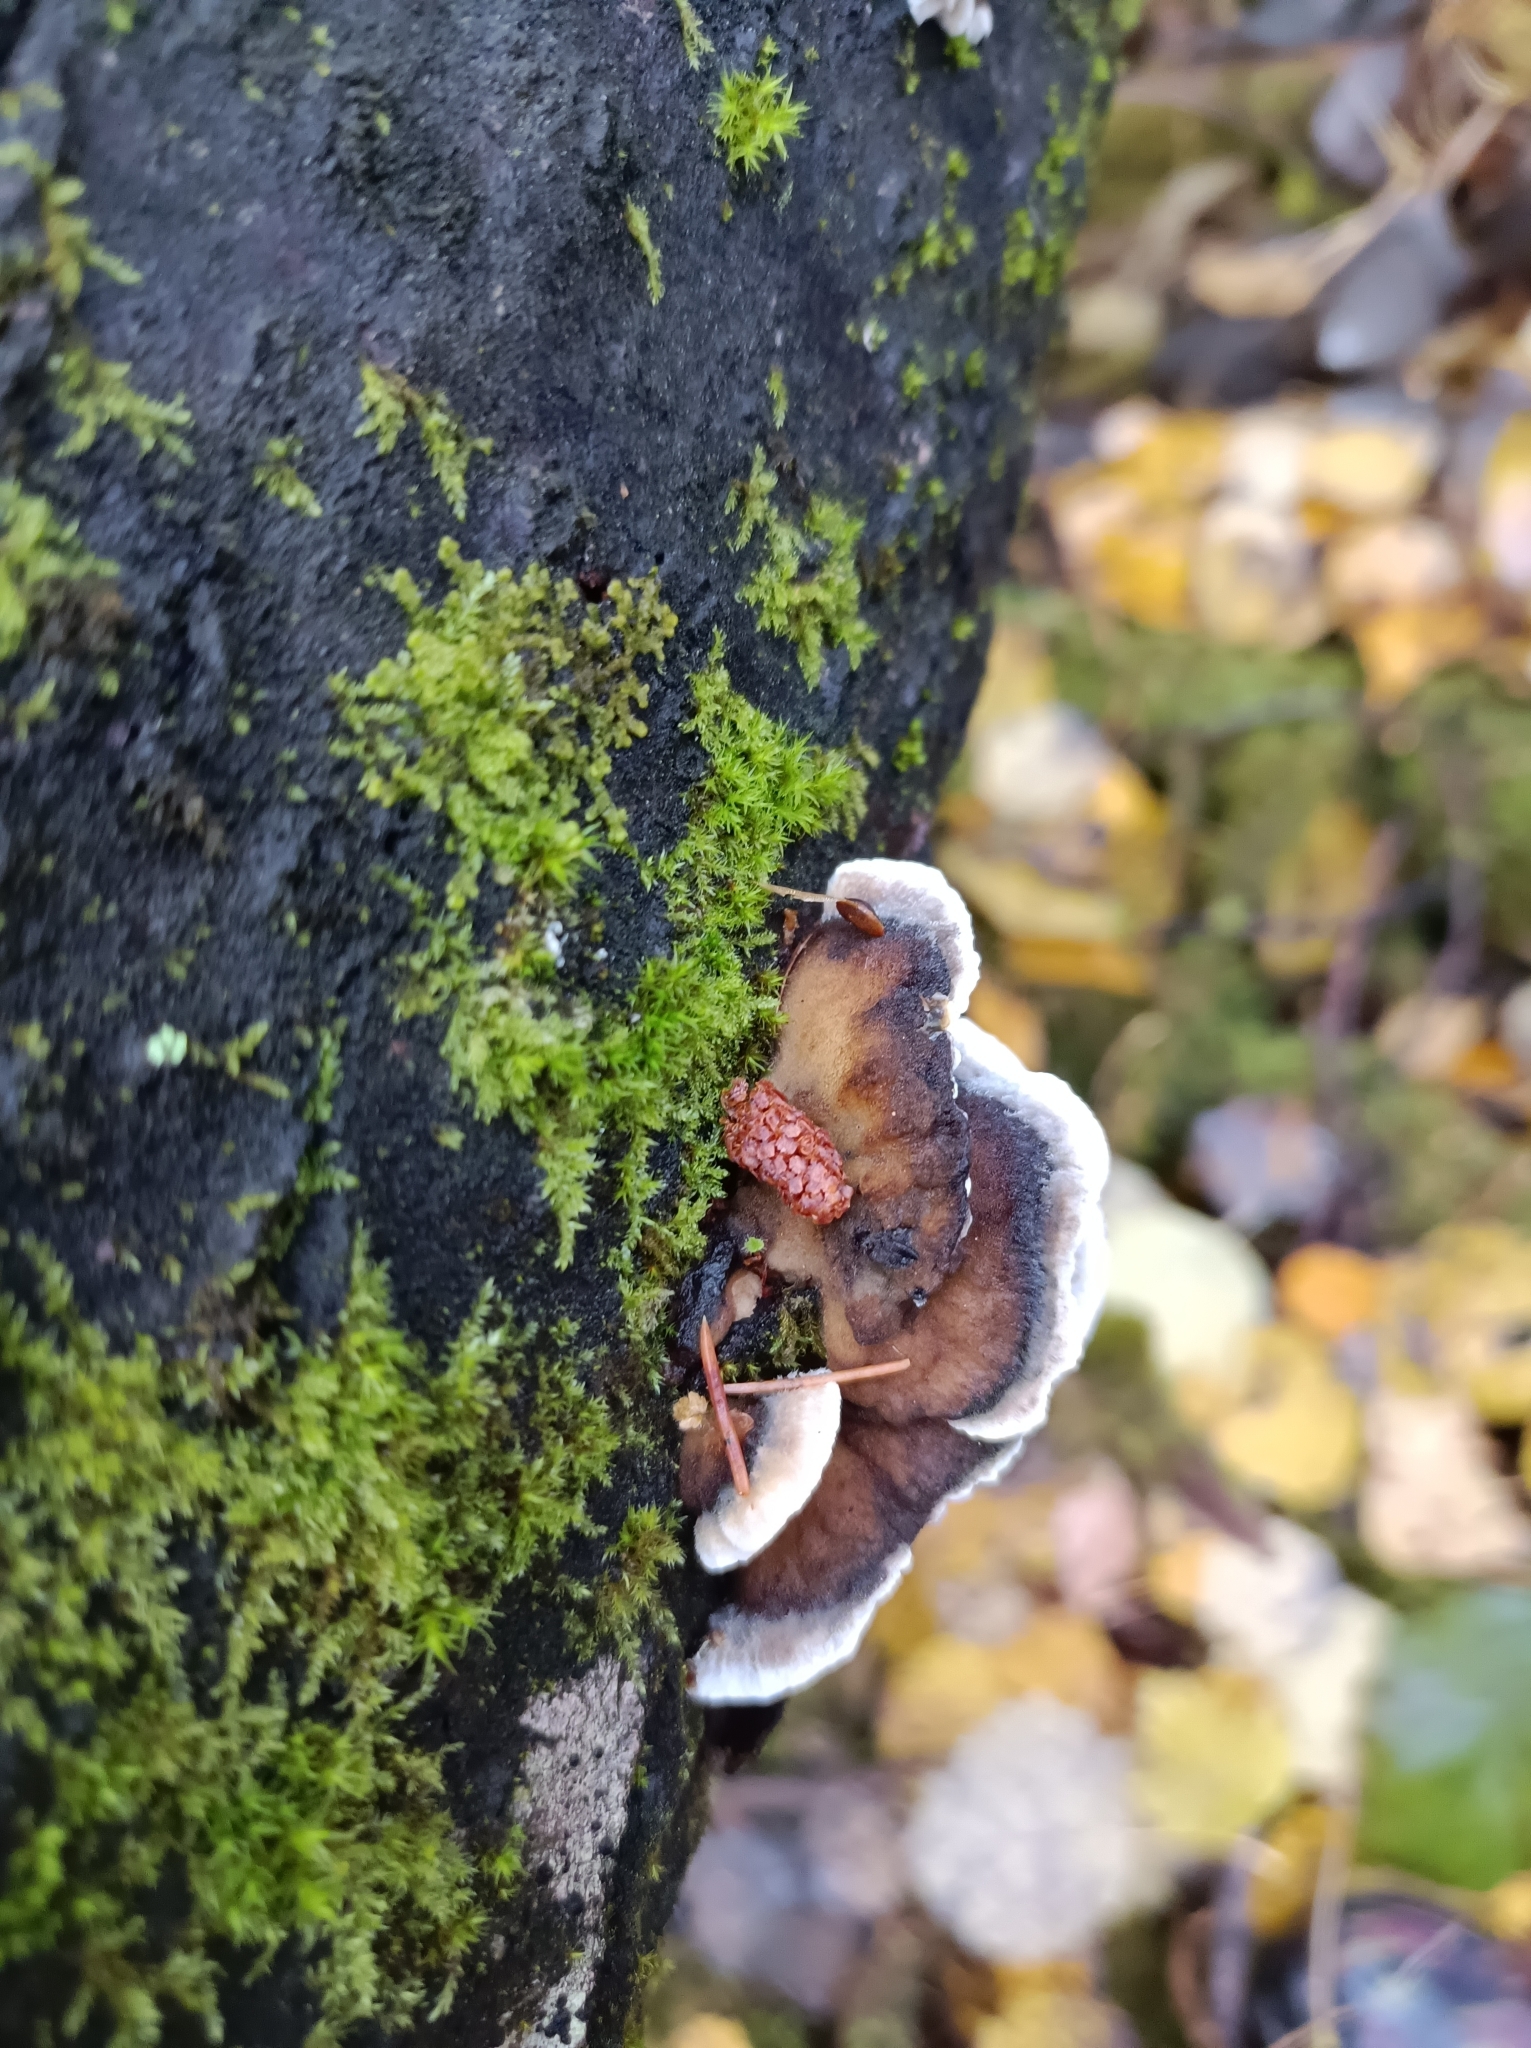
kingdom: Fungi
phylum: Basidiomycota
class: Agaricomycetes
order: Polyporales
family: Phanerochaetaceae
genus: Bjerkandera
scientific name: Bjerkandera adusta
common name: Smoky bracket
